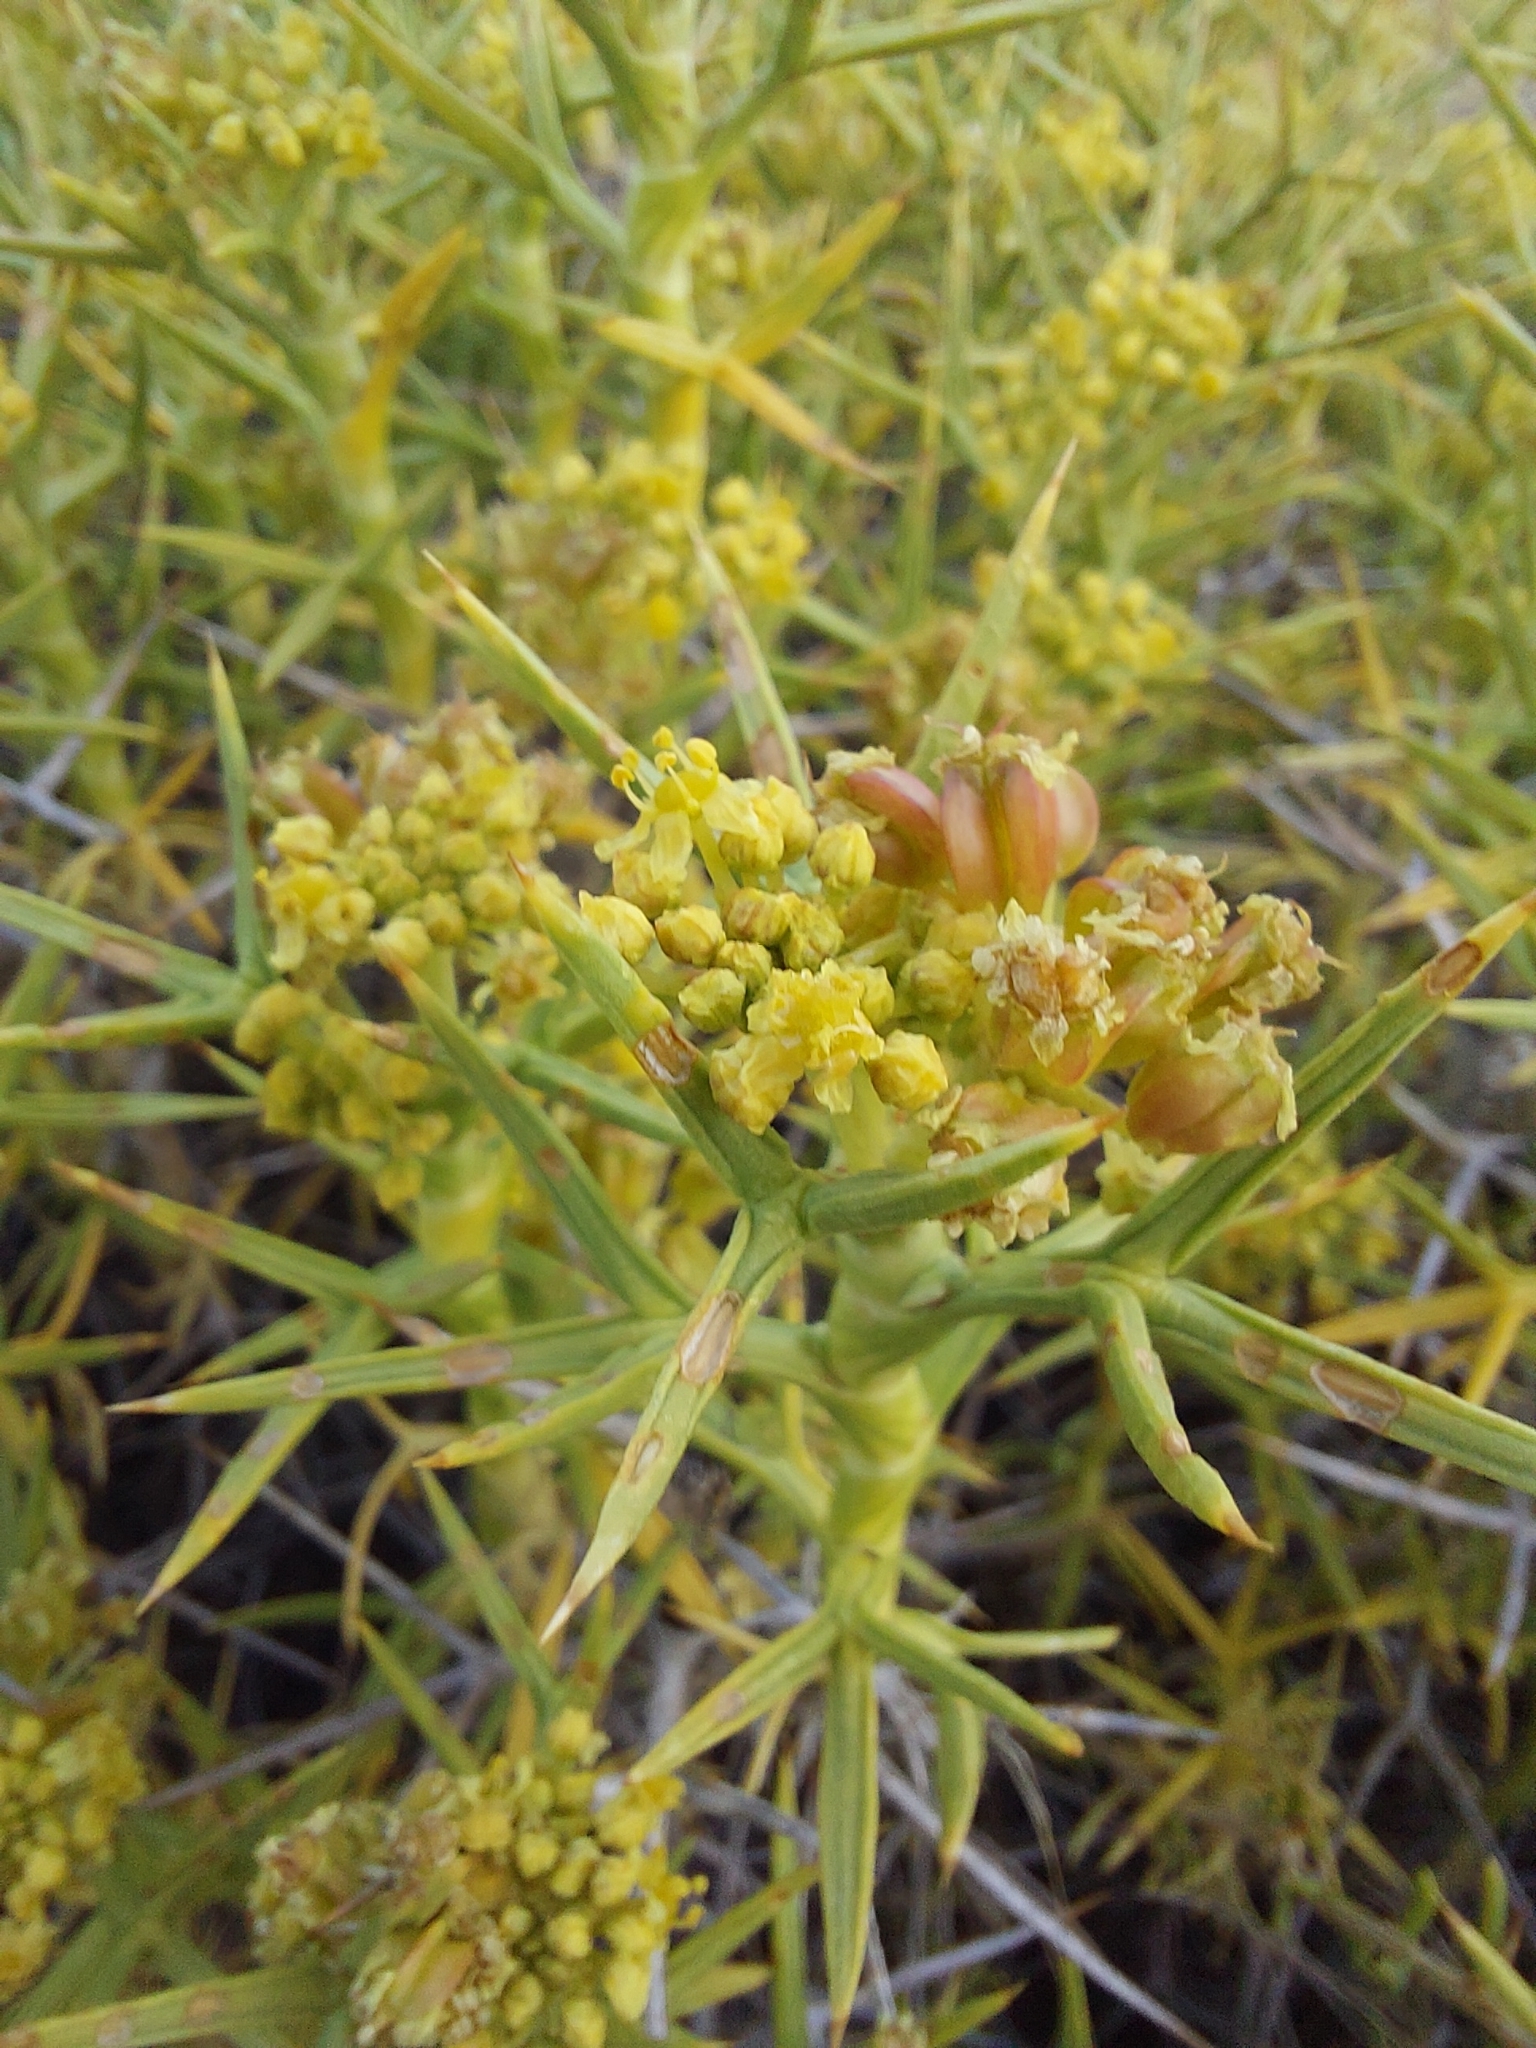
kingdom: Plantae
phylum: Tracheophyta
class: Magnoliopsida
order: Apiales
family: Apiaceae
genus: Azorella
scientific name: Azorella prolifera
